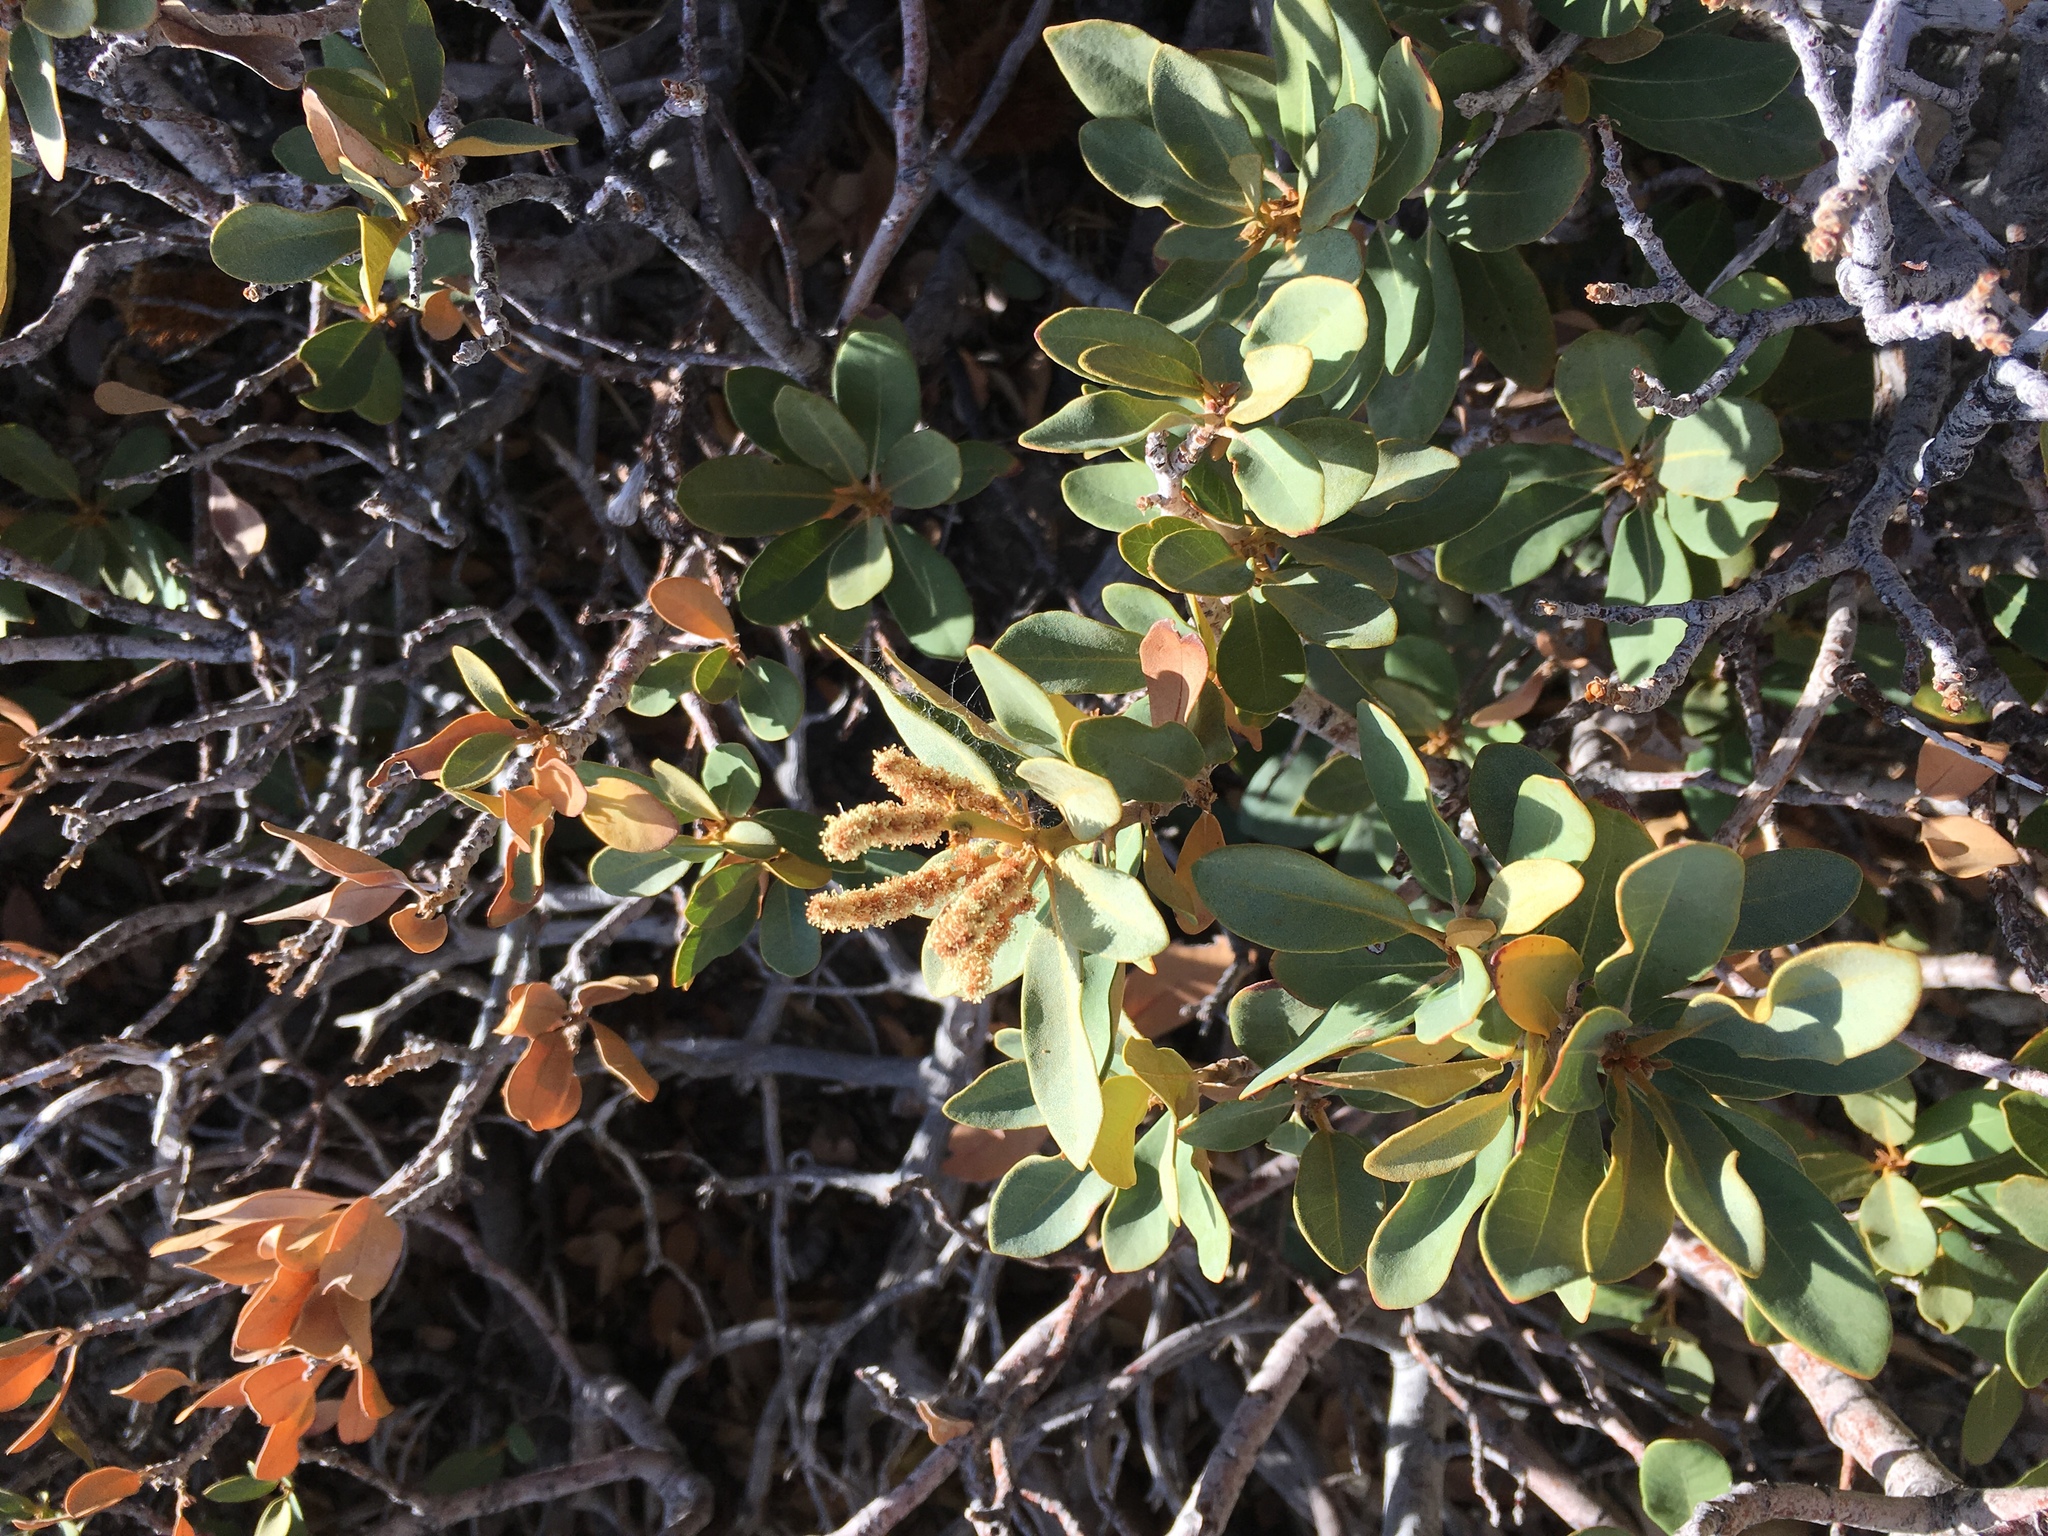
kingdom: Plantae
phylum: Tracheophyta
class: Magnoliopsida
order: Fagales
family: Fagaceae
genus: Chrysolepis
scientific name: Chrysolepis sempervirens
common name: Bush chinquapin
